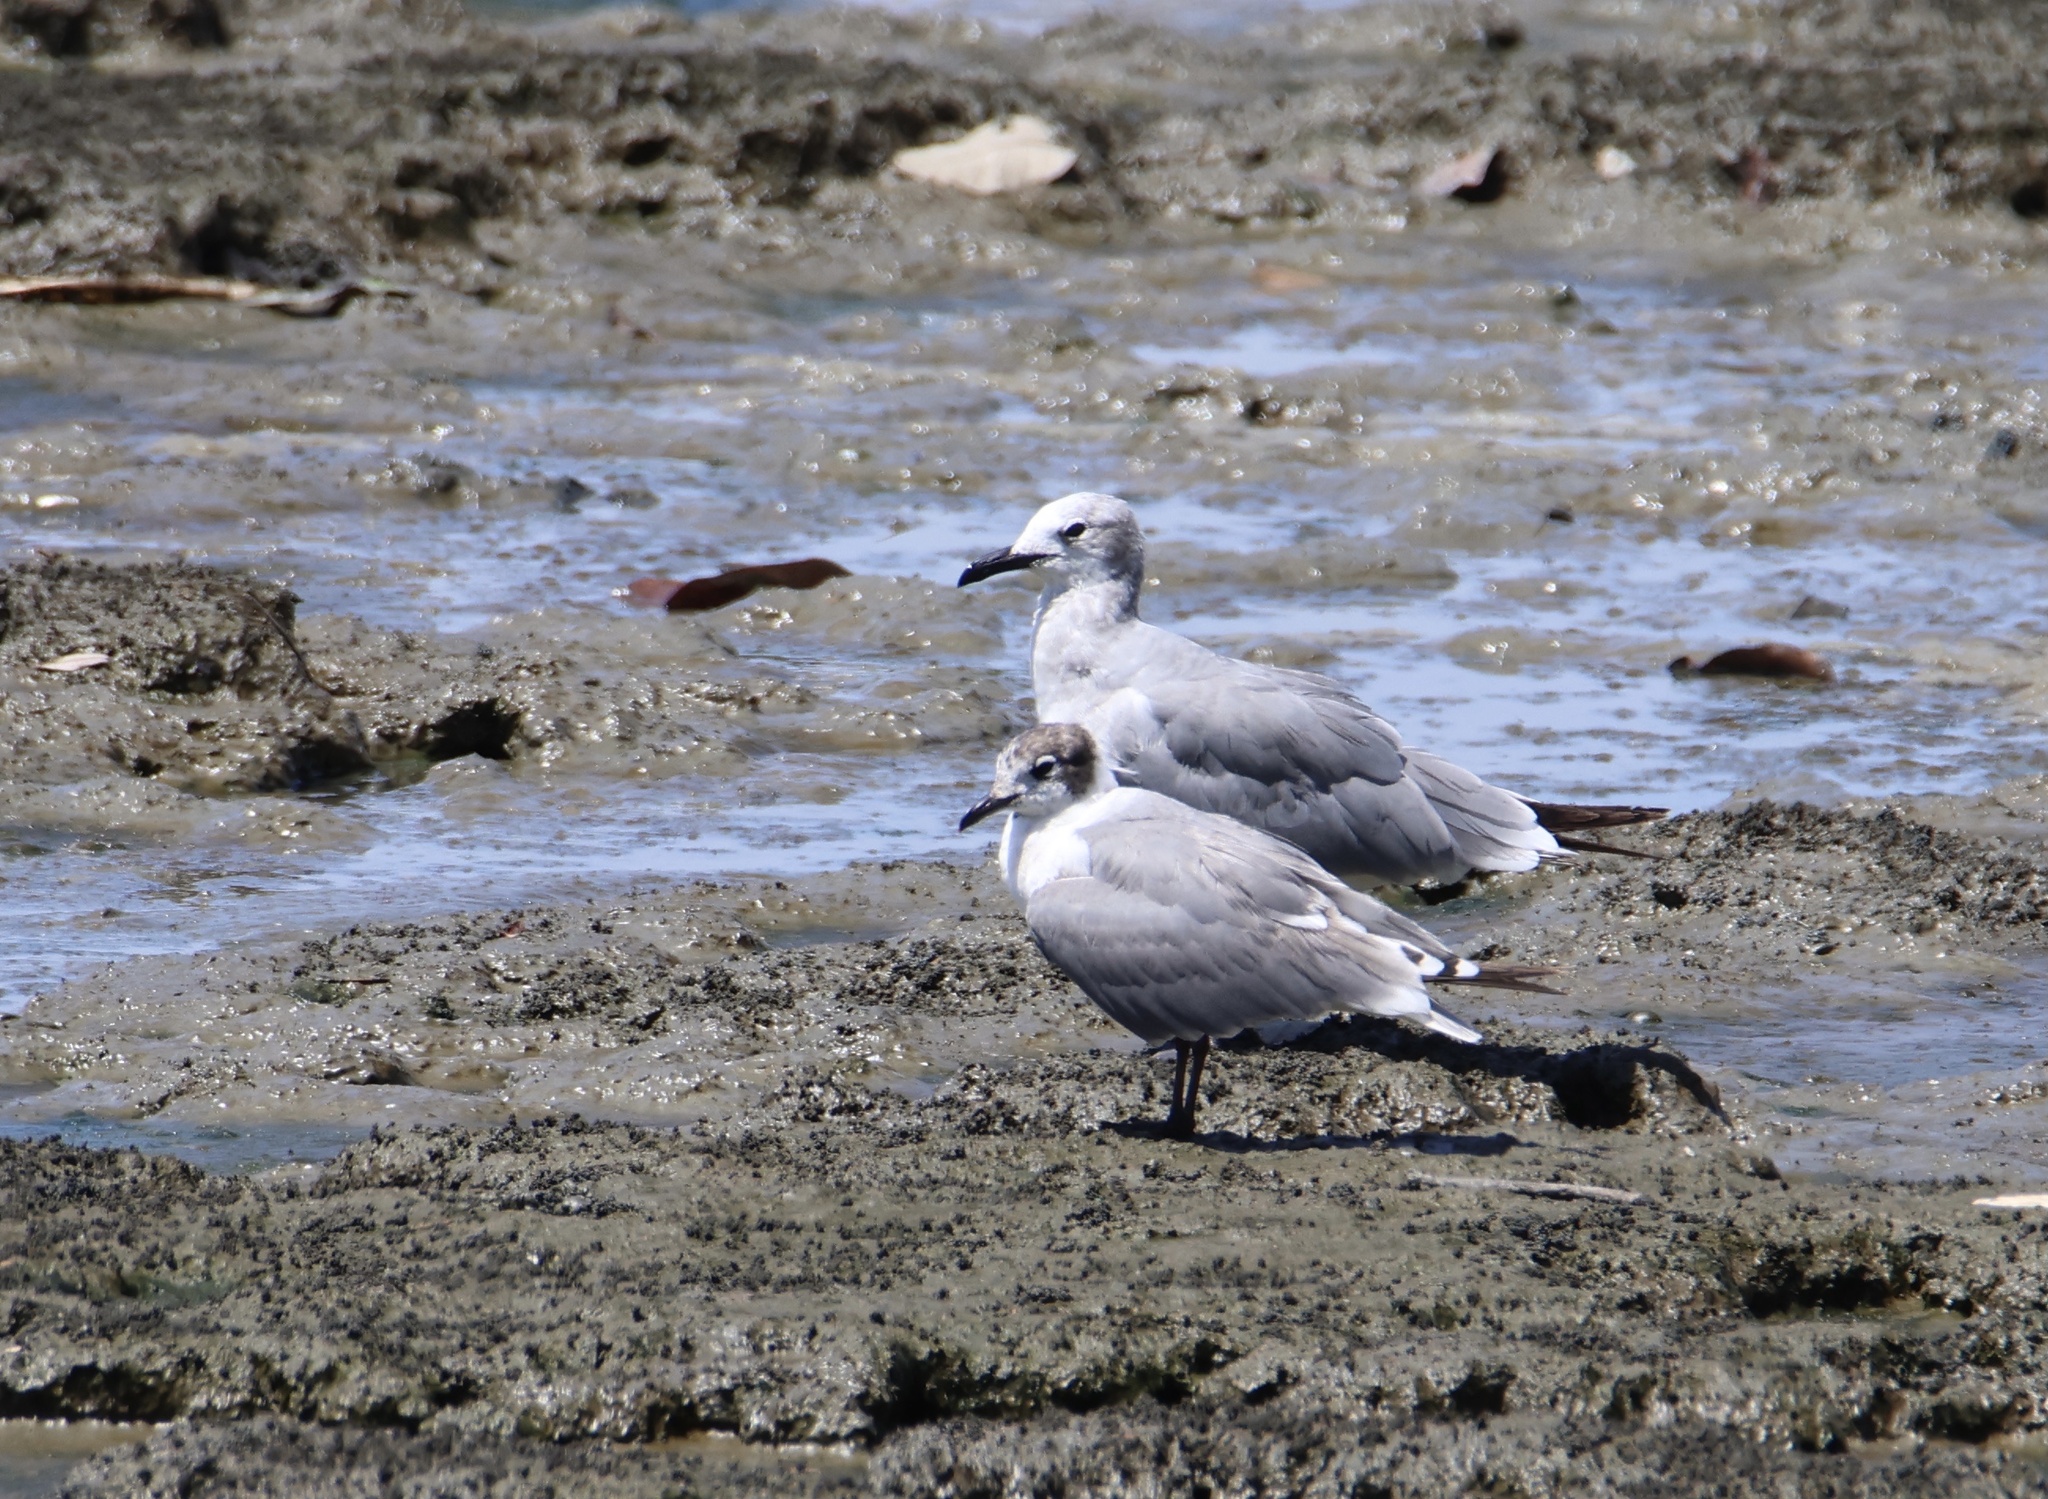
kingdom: Animalia
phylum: Chordata
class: Aves
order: Charadriiformes
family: Laridae
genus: Leucophaeus
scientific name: Leucophaeus pipixcan
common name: Franklin's gull
